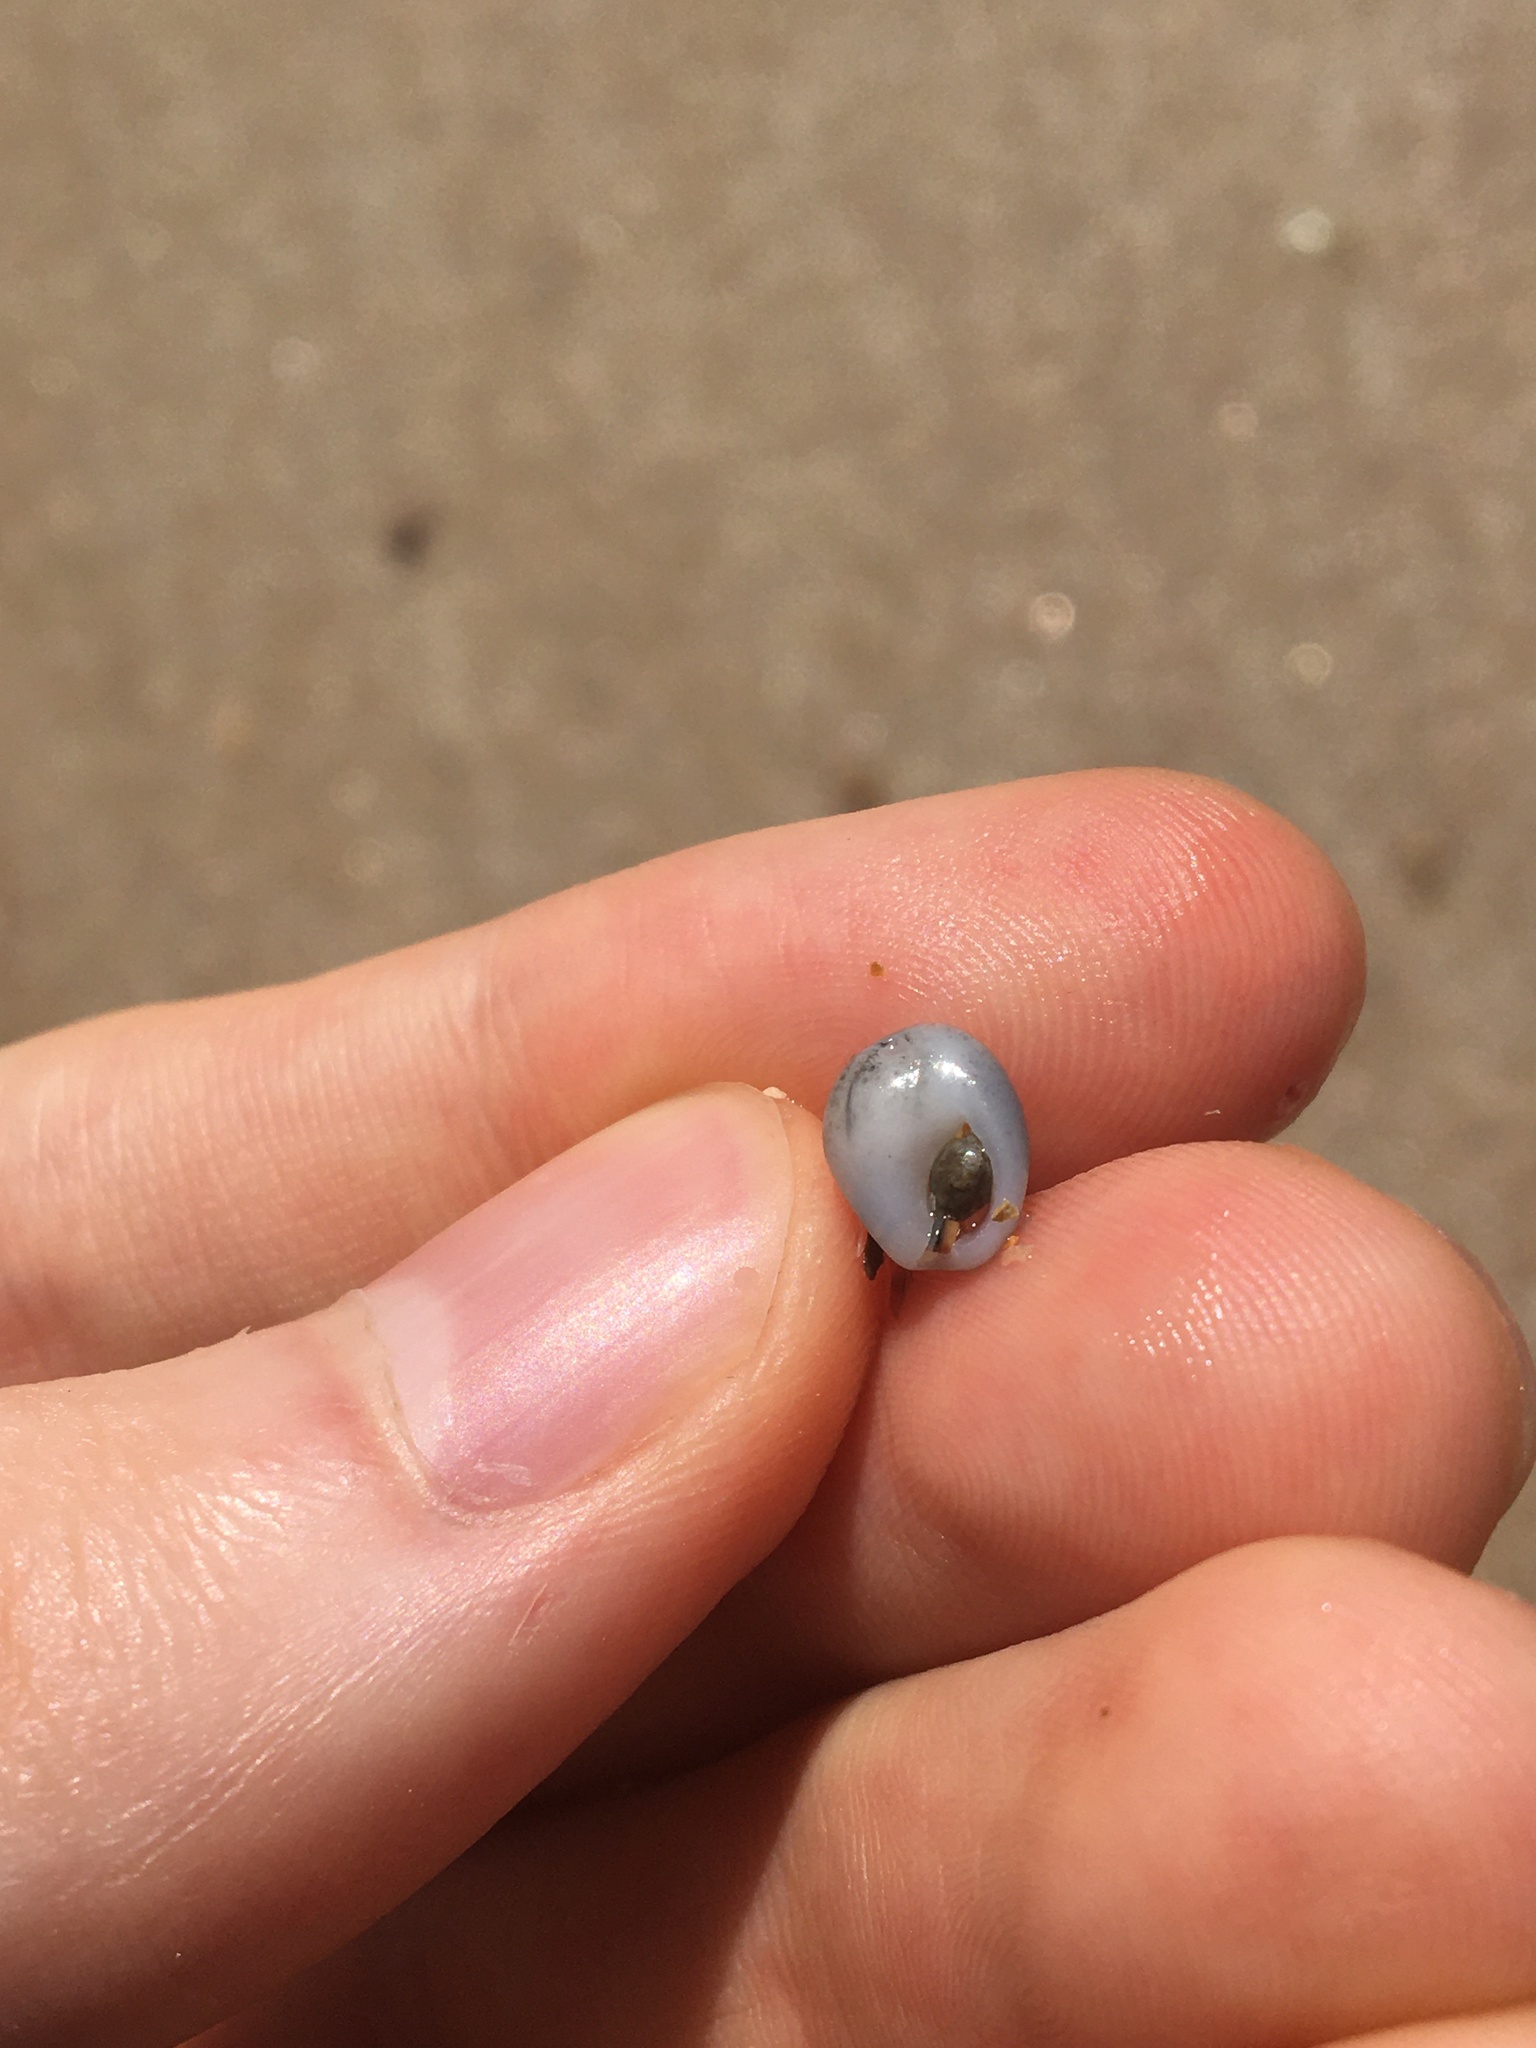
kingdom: Animalia
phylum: Mollusca
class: Gastropoda
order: Neogastropoda
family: Nassariidae
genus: Nassarius
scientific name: Nassarius jonasii
